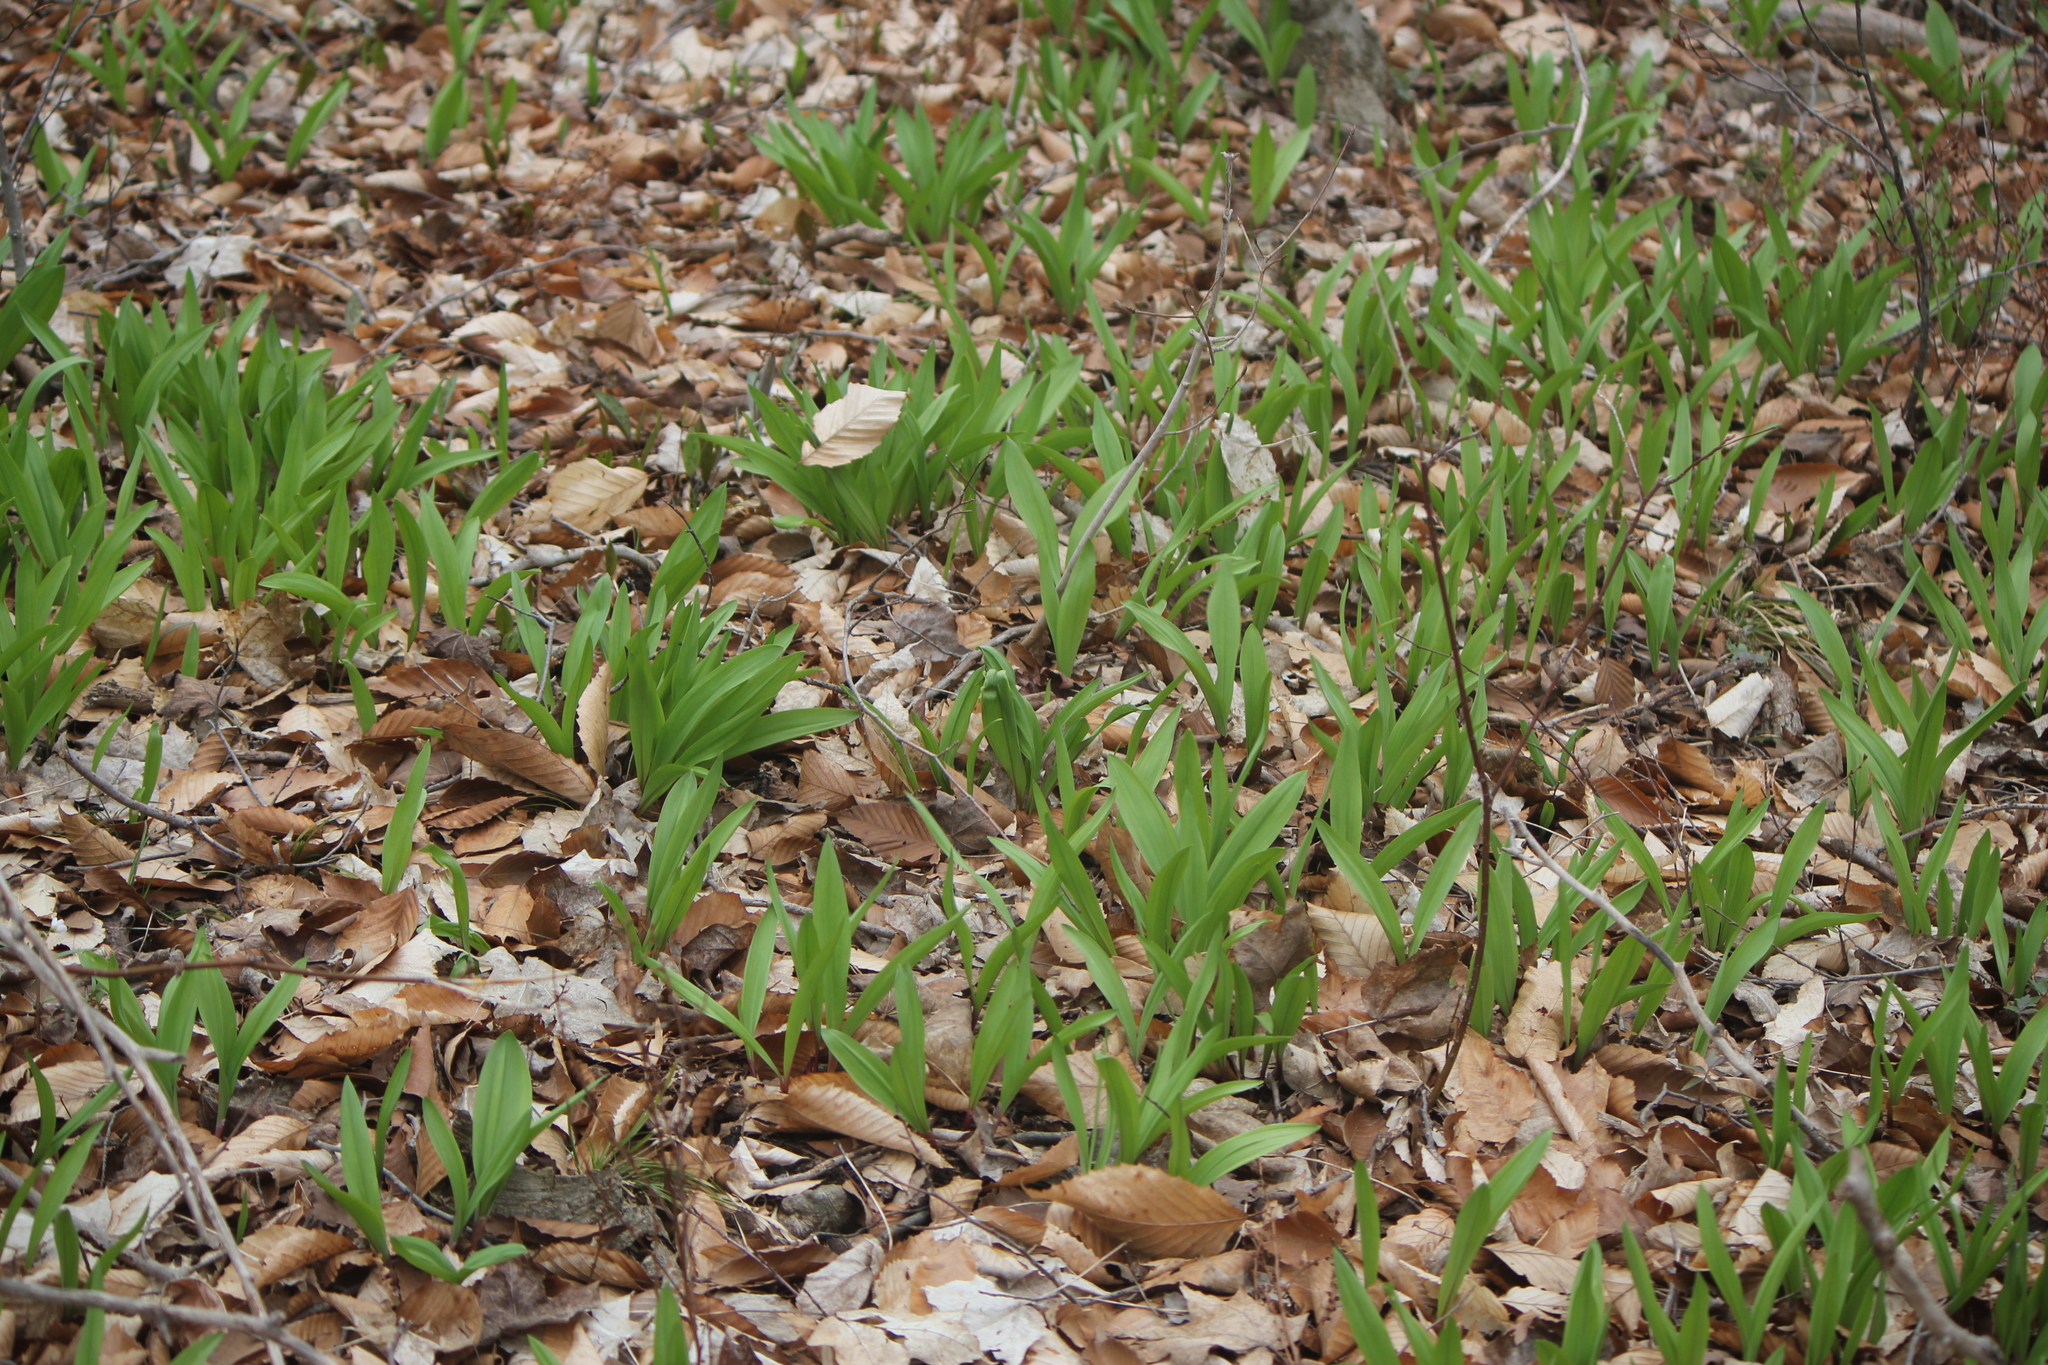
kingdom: Plantae
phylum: Tracheophyta
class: Liliopsida
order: Asparagales
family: Amaryllidaceae
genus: Allium
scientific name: Allium tricoccum
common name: Ramp
